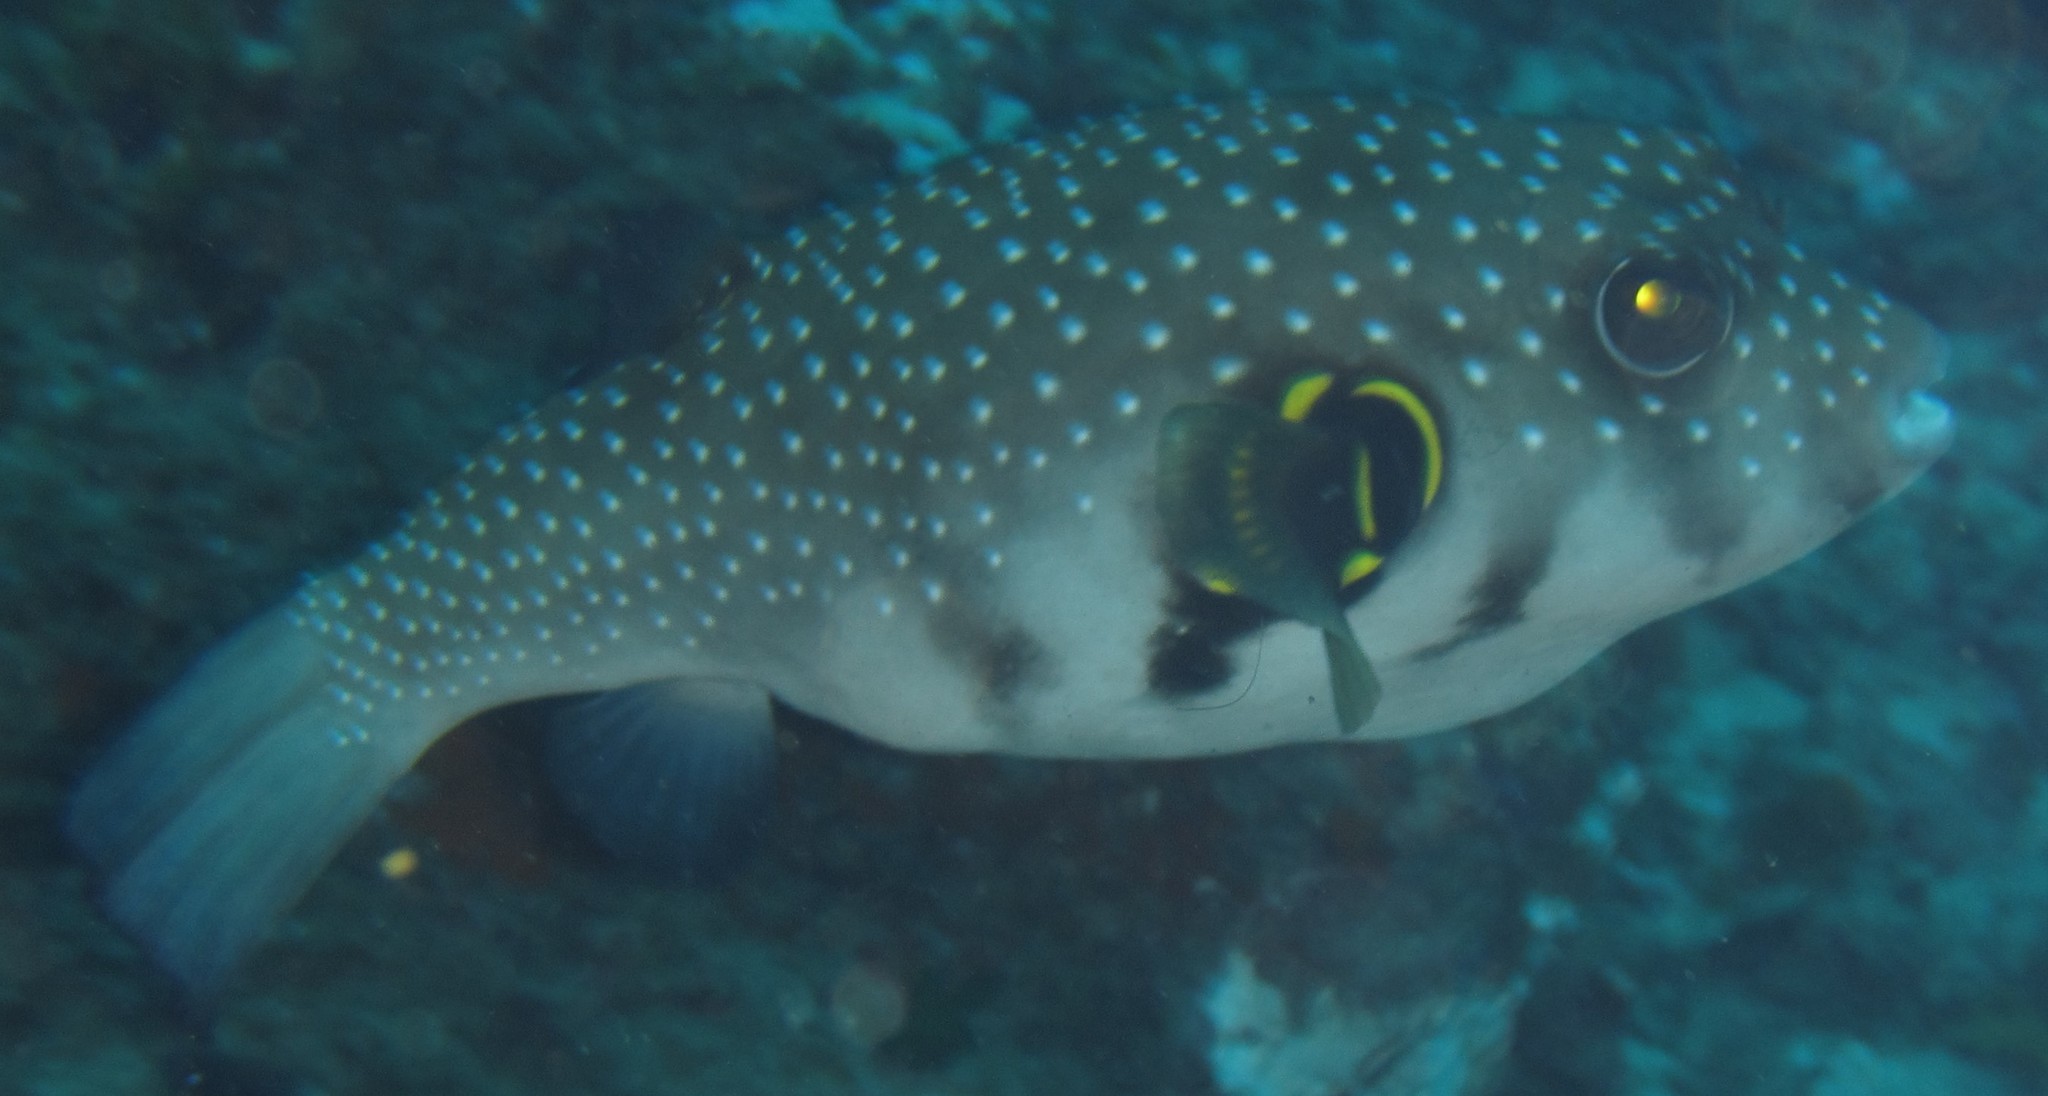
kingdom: Animalia
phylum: Chordata
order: Tetraodontiformes
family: Tetraodontidae
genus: Arothron
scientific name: Arothron hispidus
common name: Stripebelly puffer
